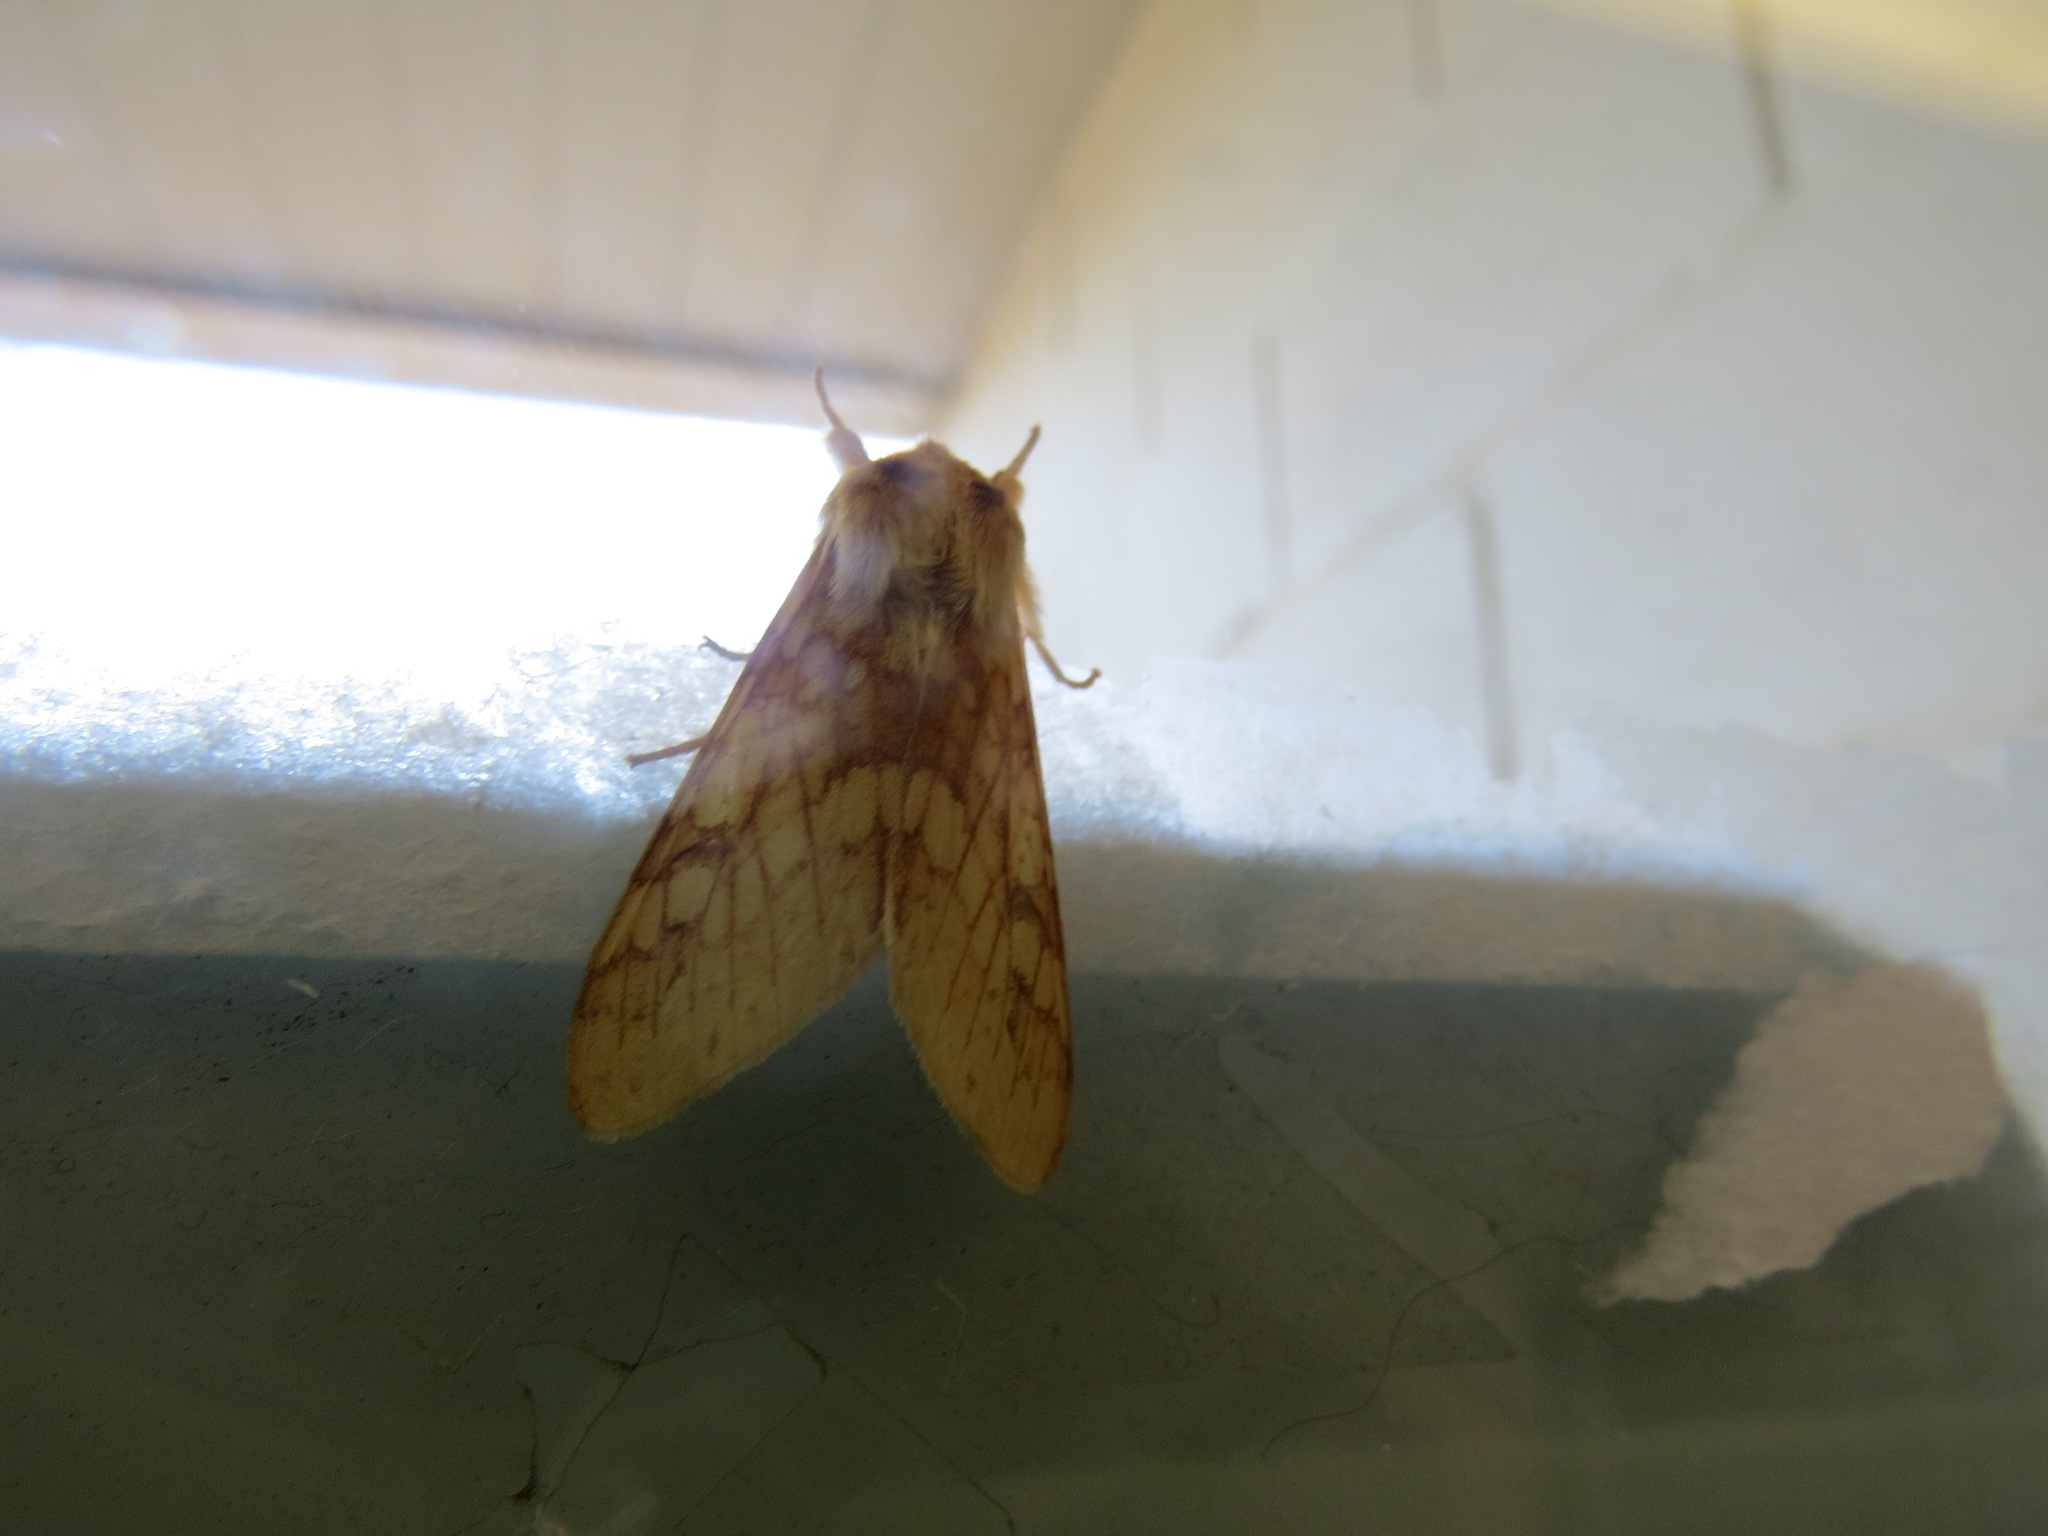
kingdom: Animalia
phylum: Arthropoda
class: Insecta
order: Lepidoptera
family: Erebidae
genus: Lophocampa
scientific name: Lophocampa maculata
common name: Spotted tussock moth
